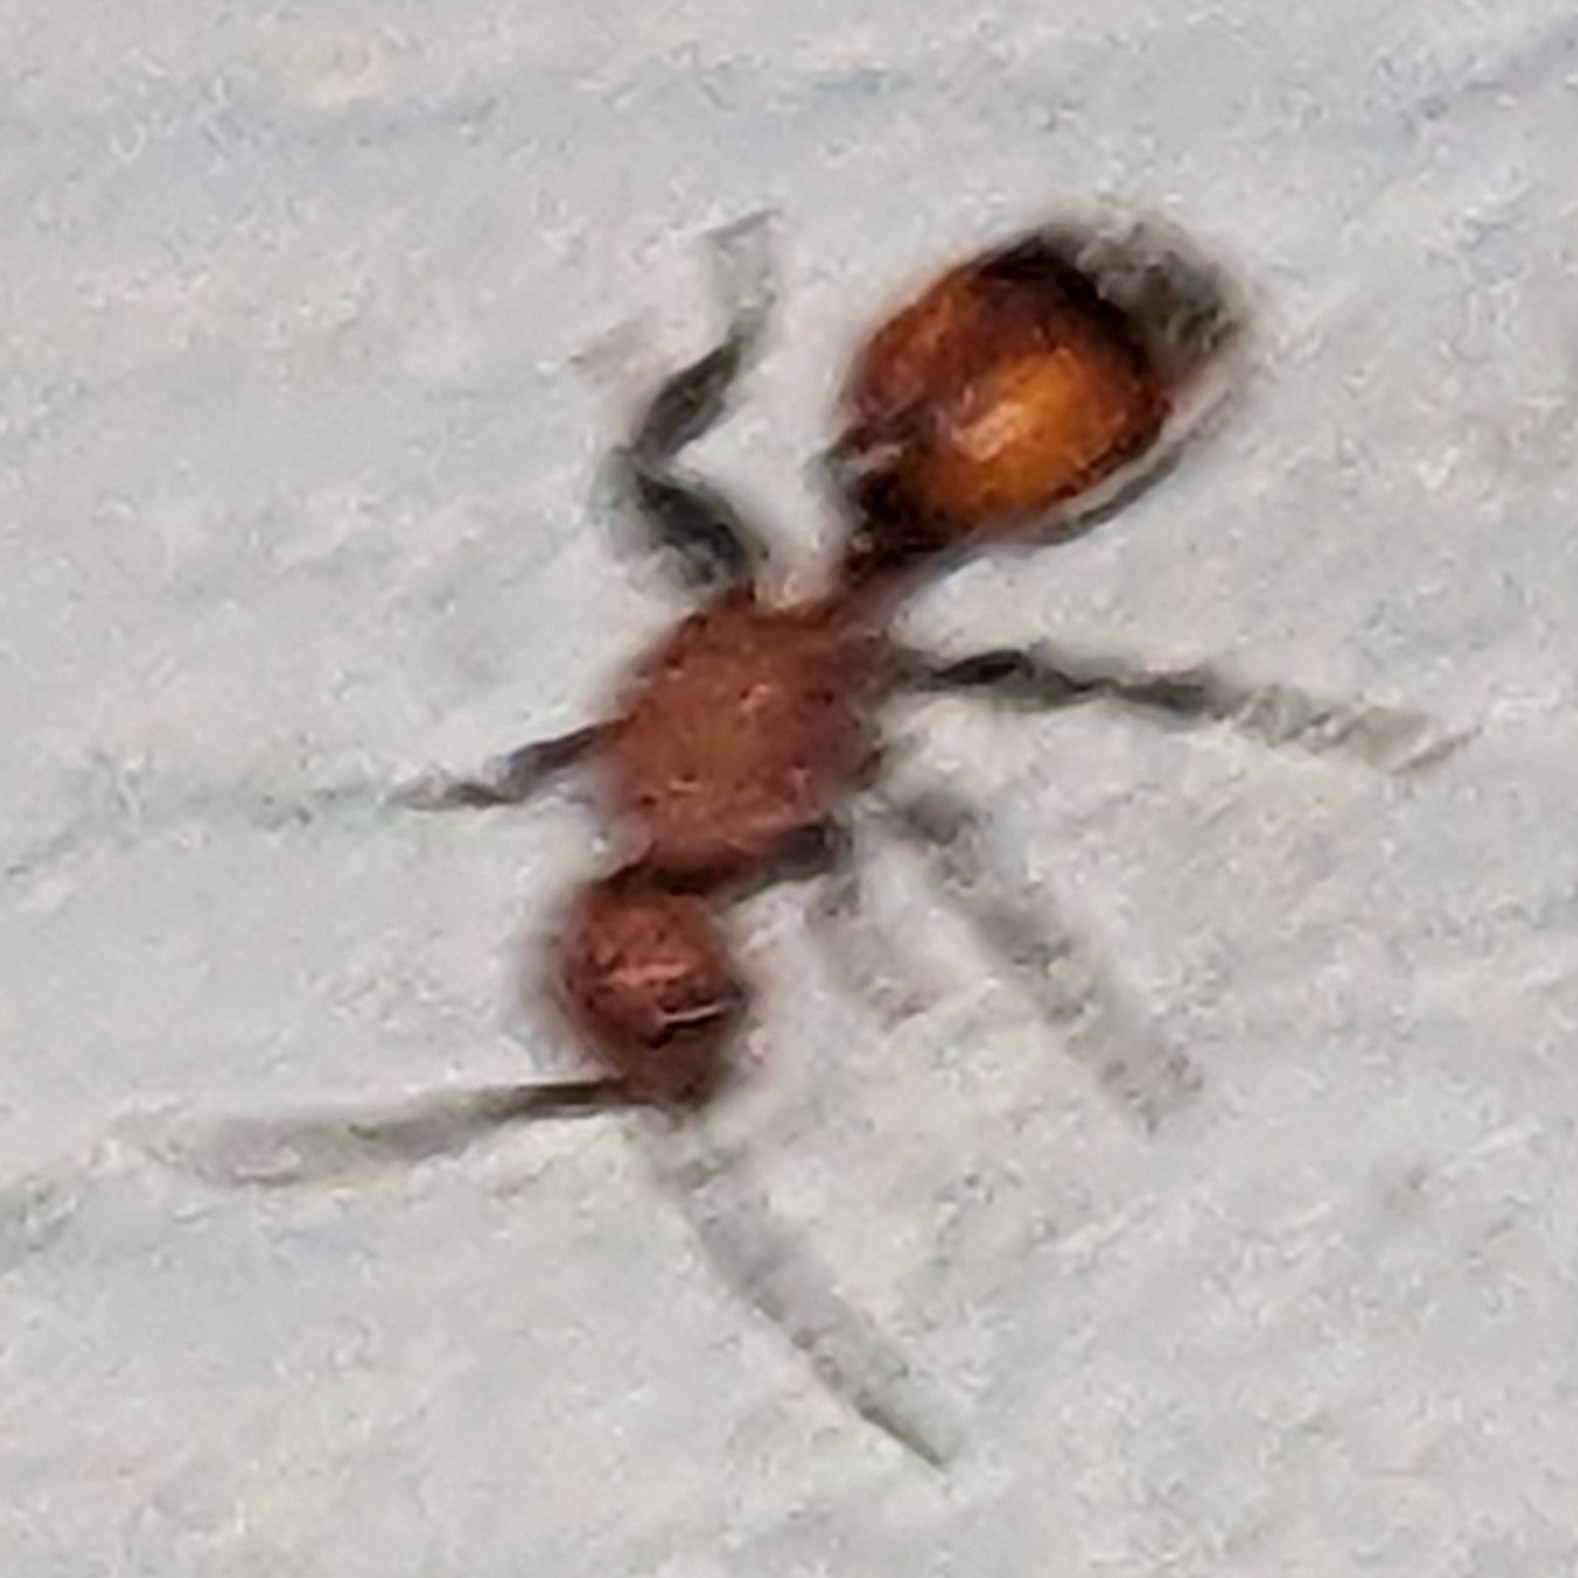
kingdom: Animalia
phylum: Arthropoda
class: Insecta
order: Hymenoptera
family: Mutillidae
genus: Sphaeropthalma
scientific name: Sphaeropthalma
